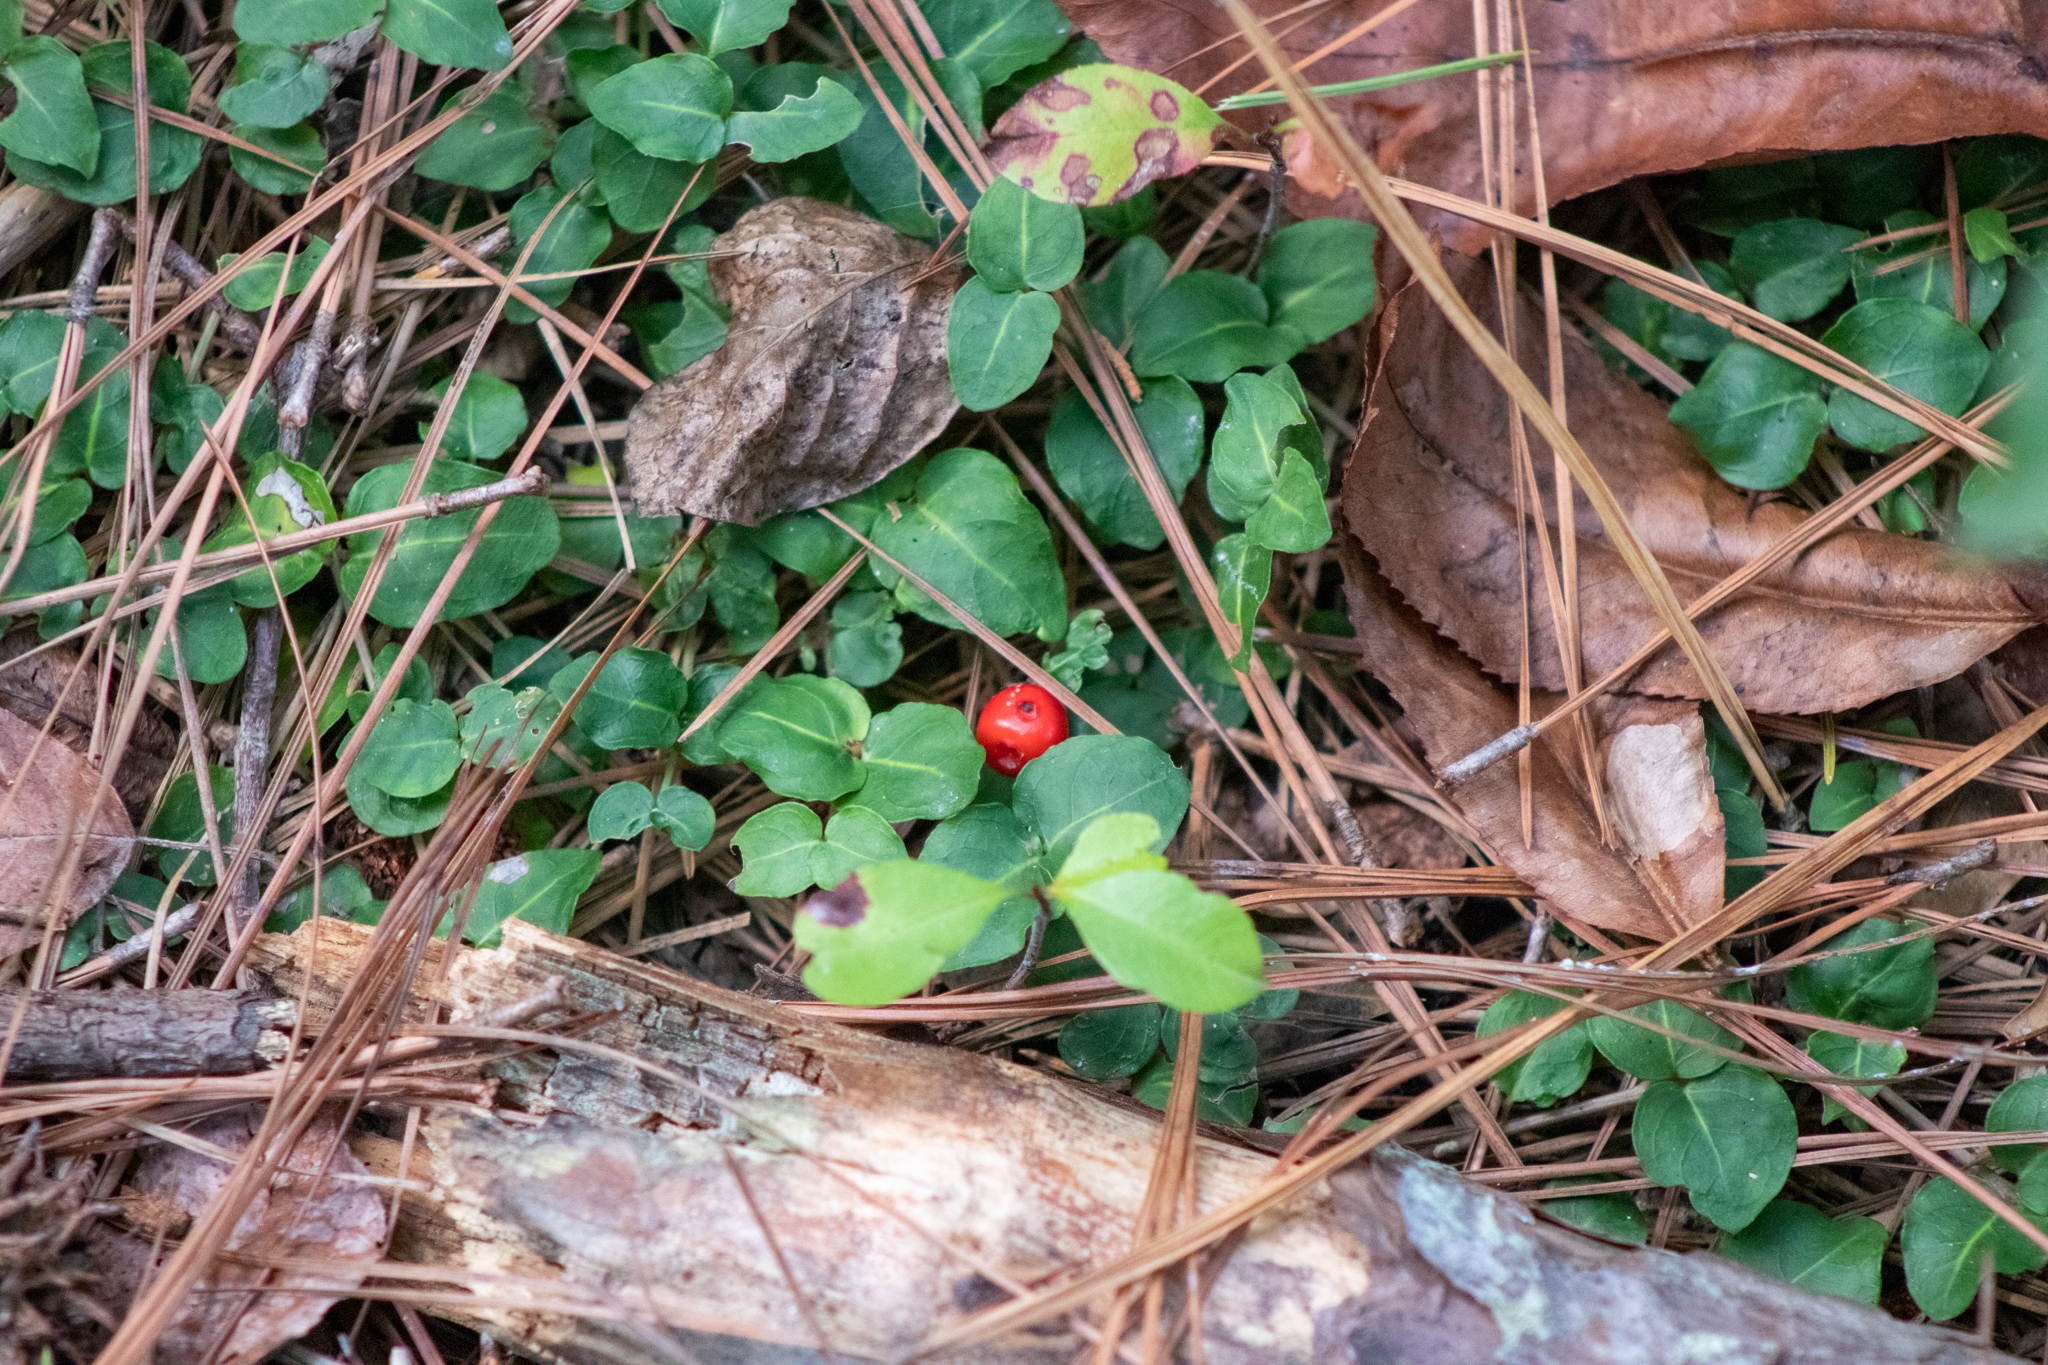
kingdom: Plantae
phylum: Tracheophyta
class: Magnoliopsida
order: Gentianales
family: Rubiaceae
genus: Mitchella
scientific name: Mitchella repens
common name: Partridge-berry
